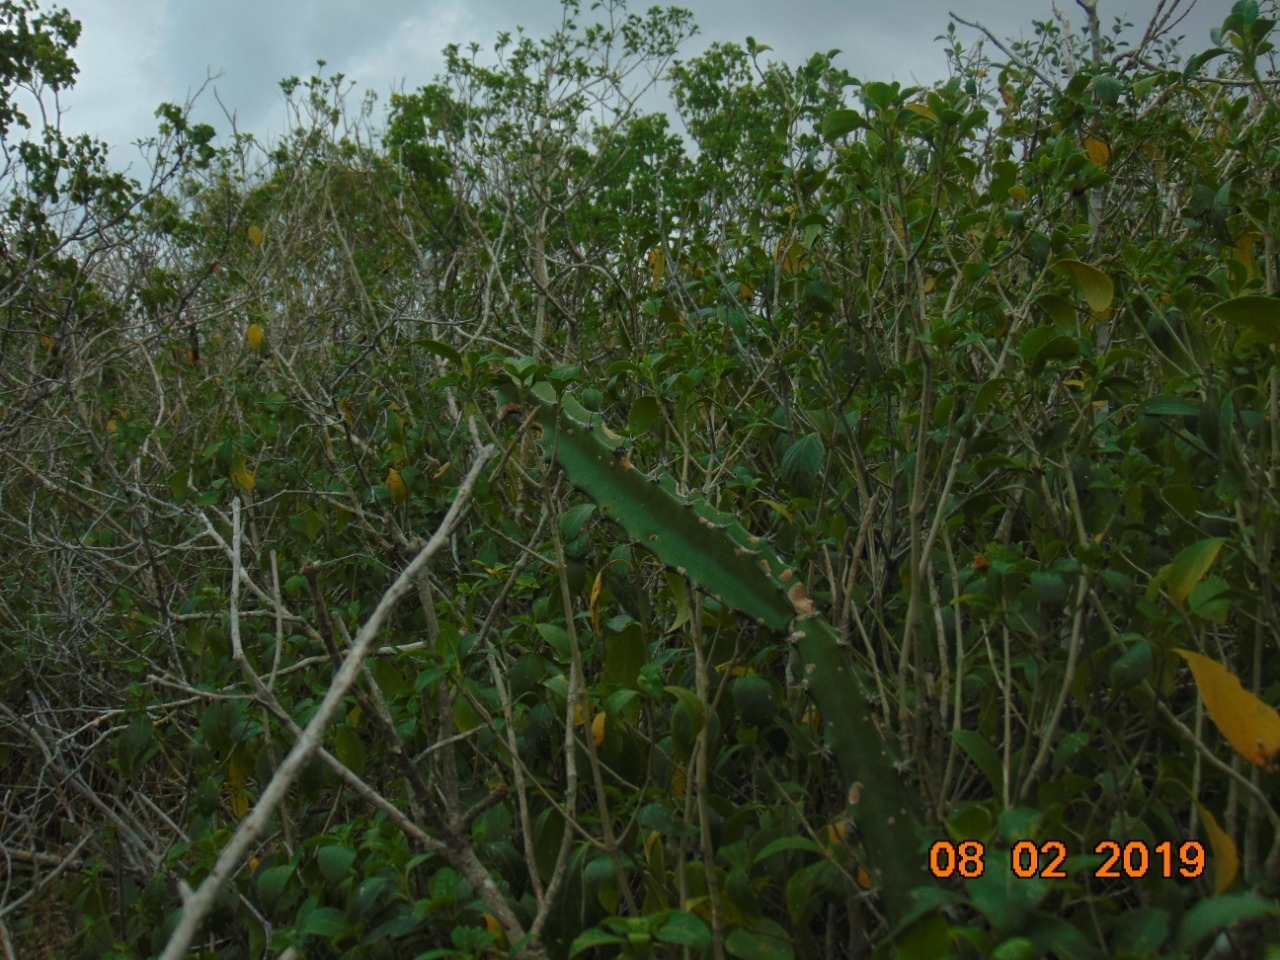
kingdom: Plantae
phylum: Tracheophyta
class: Magnoliopsida
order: Caryophyllales
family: Cactaceae
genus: Acanthocereus
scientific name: Acanthocereus tetragonus
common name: Triangle cactus
